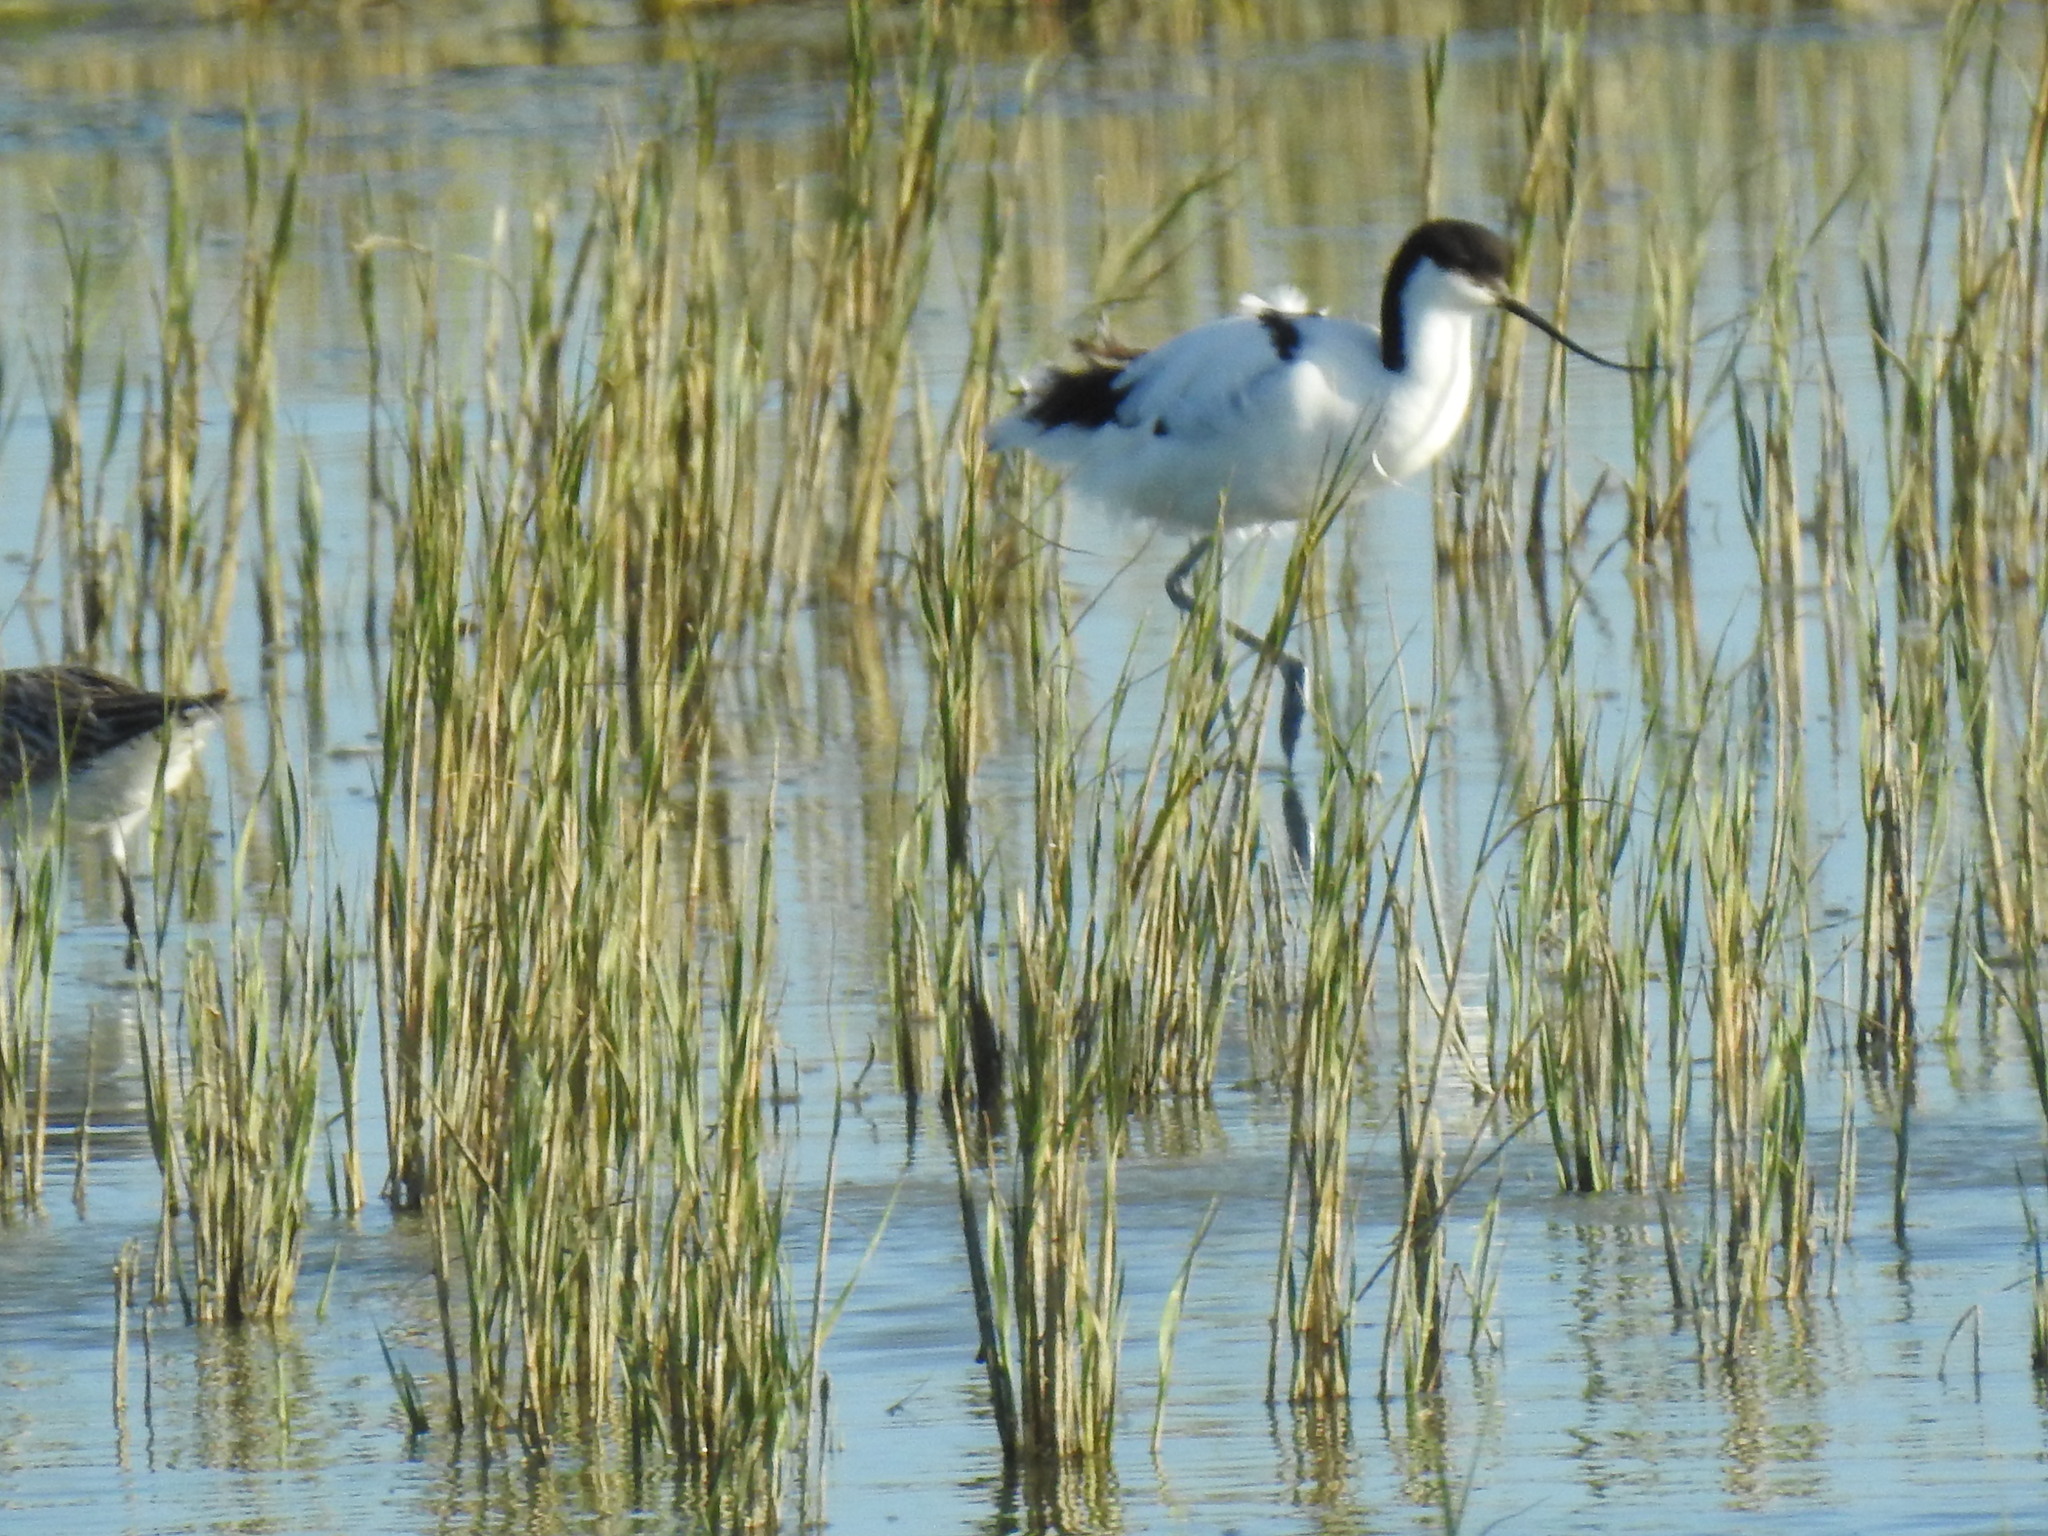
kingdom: Animalia
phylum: Chordata
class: Aves
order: Charadriiformes
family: Recurvirostridae
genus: Recurvirostra
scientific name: Recurvirostra avosetta
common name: Pied avocet
